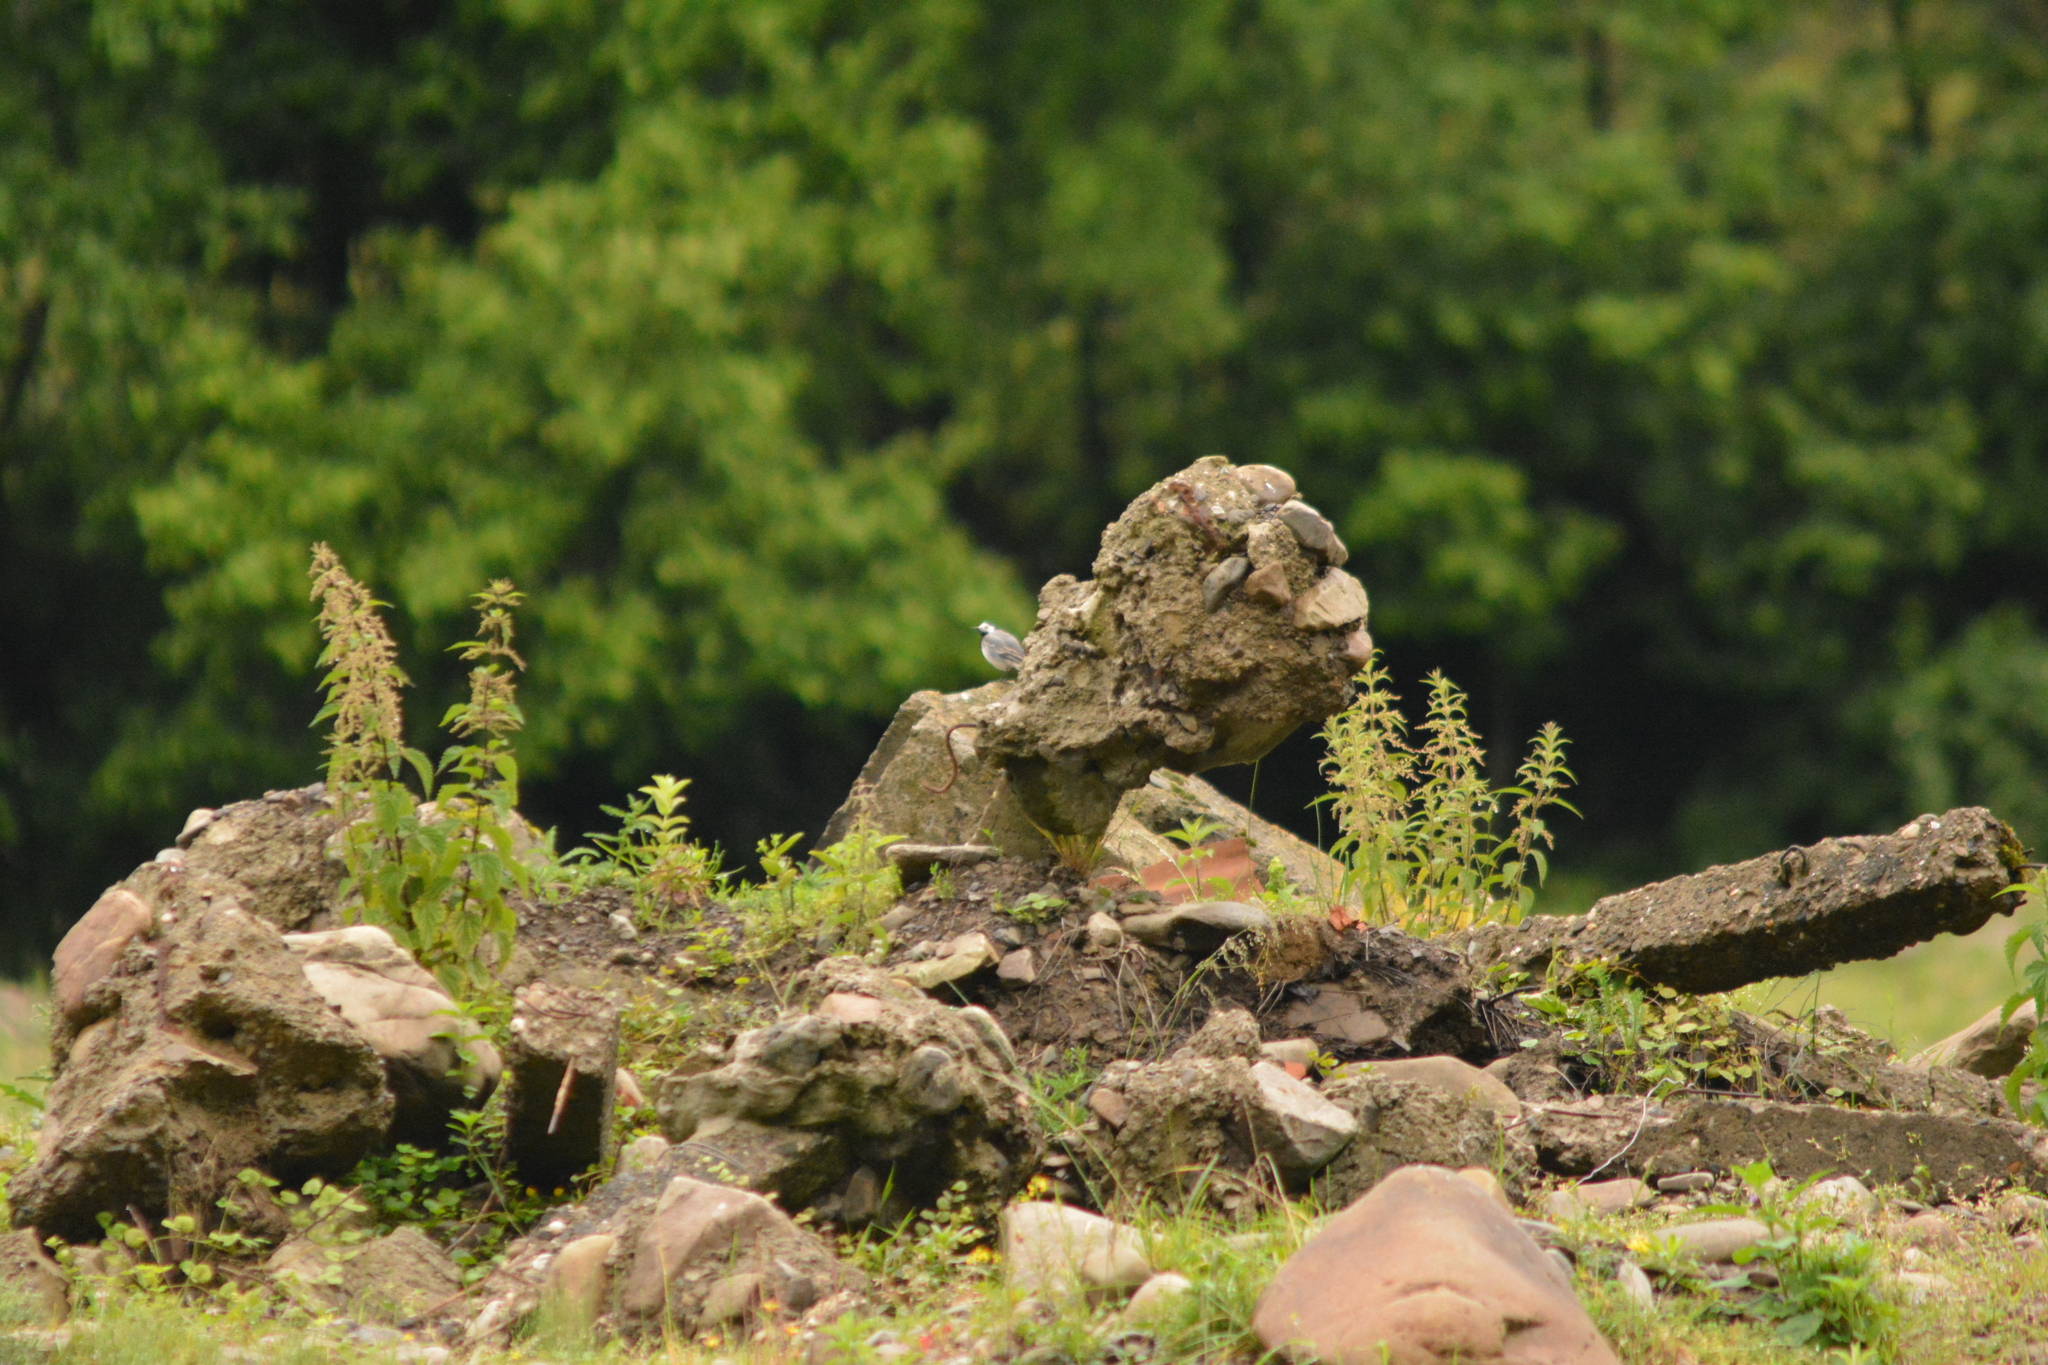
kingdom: Animalia
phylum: Chordata
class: Aves
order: Passeriformes
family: Motacillidae
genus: Motacilla
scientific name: Motacilla alba
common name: White wagtail
